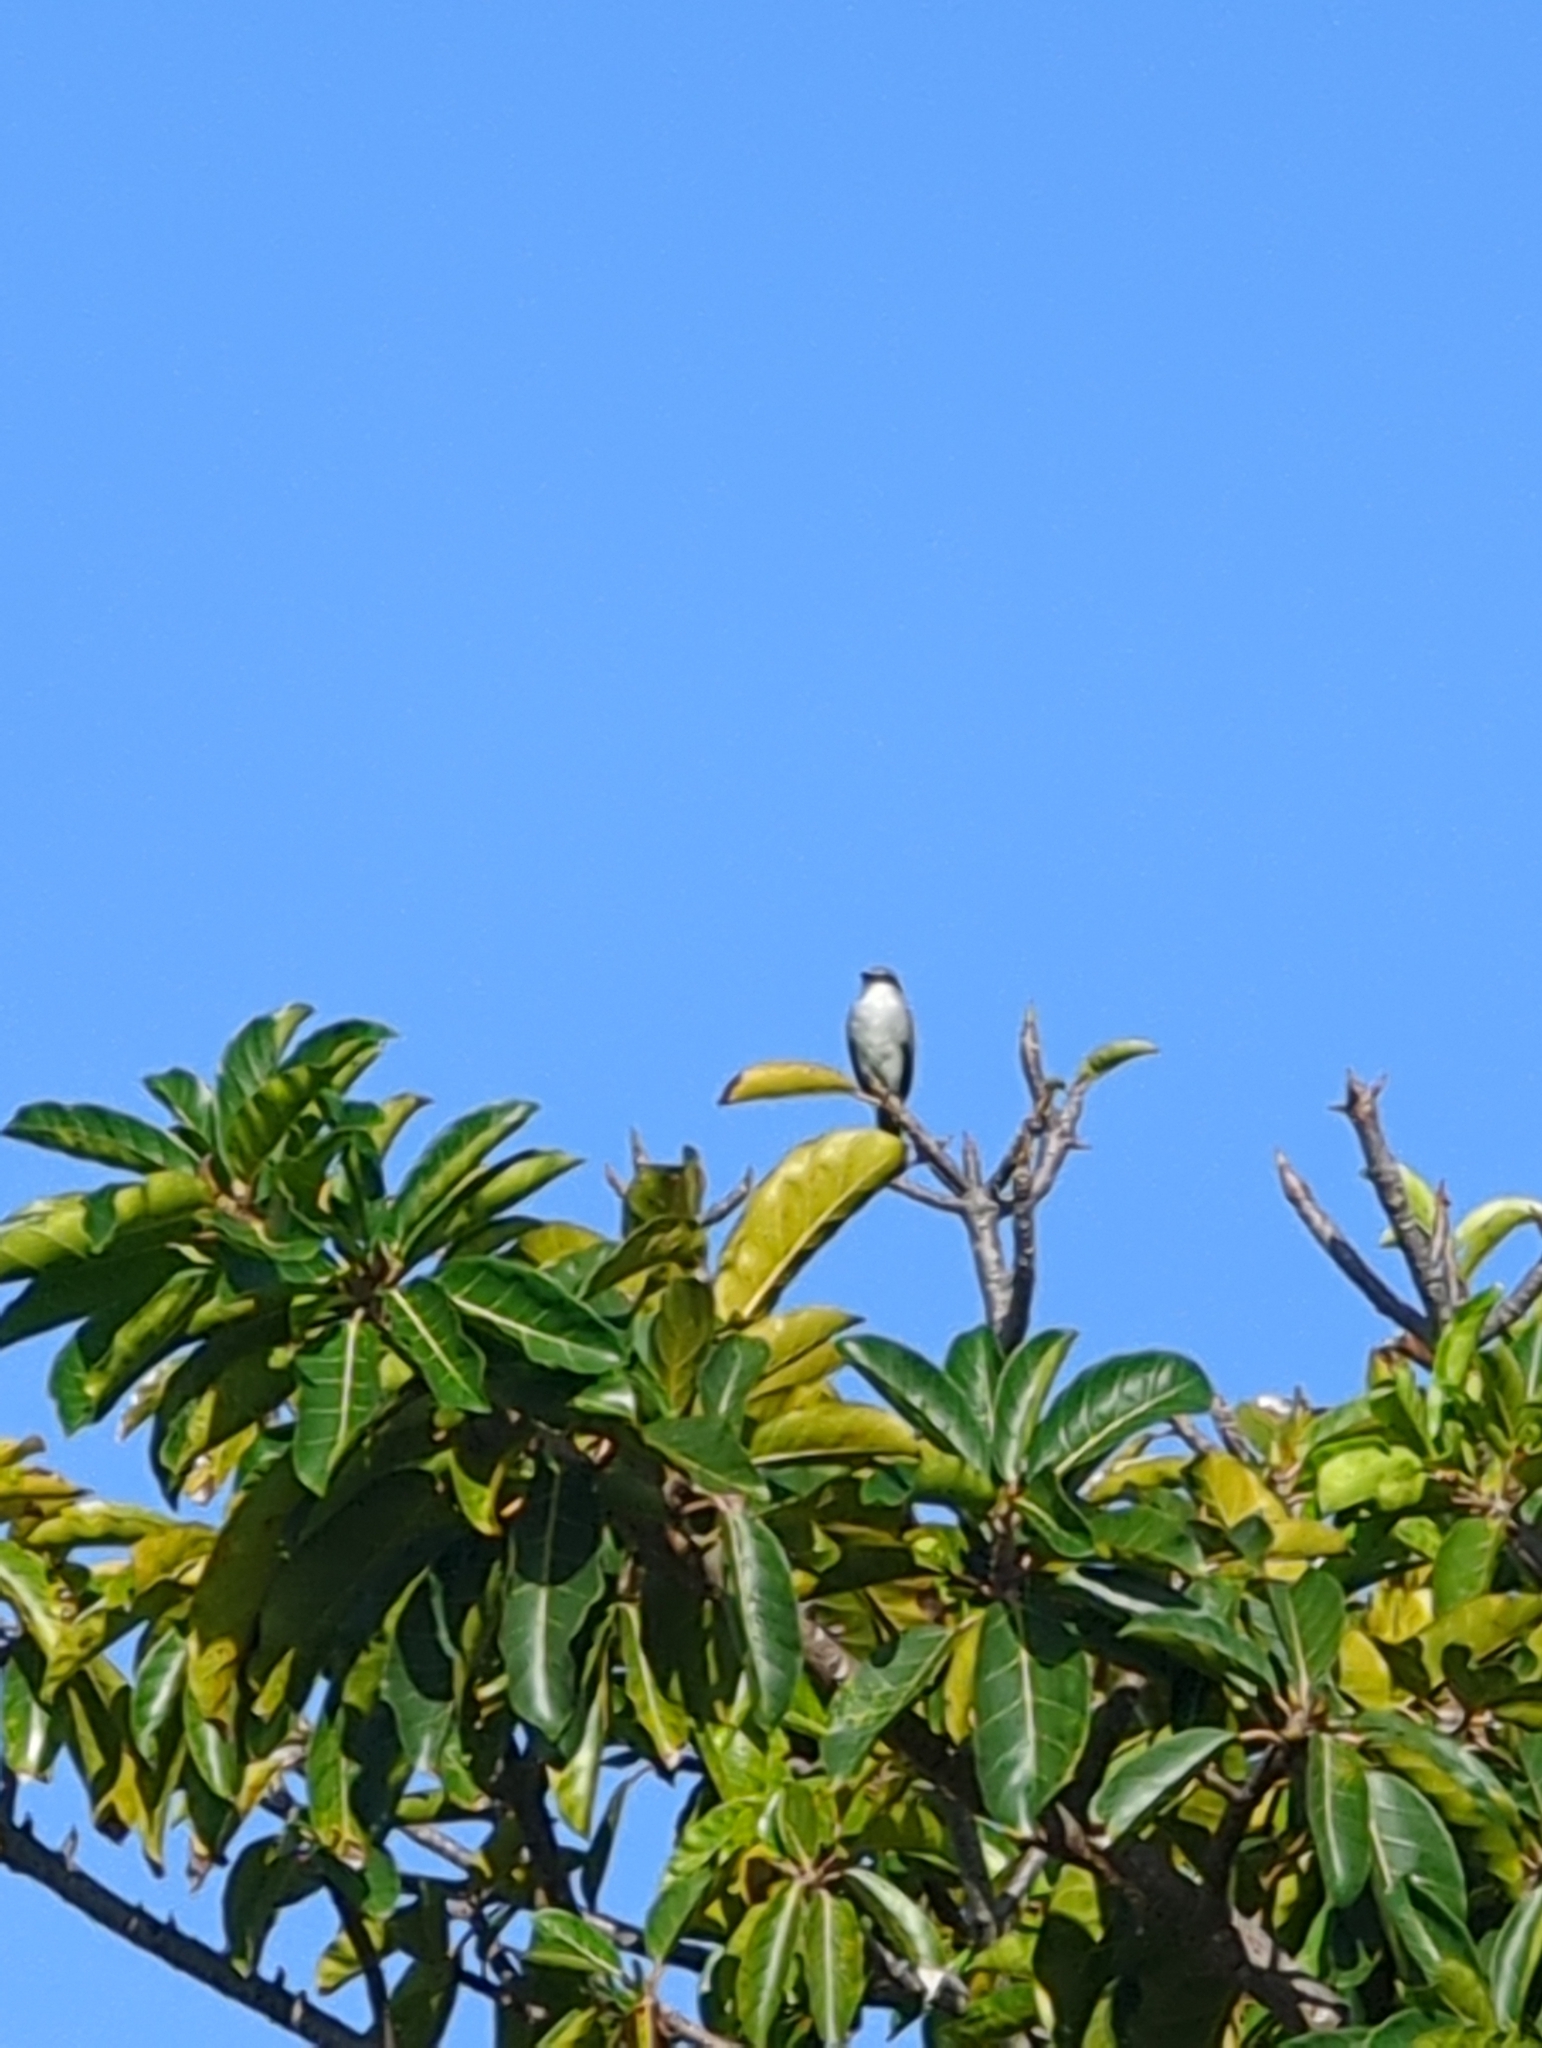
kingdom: Animalia
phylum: Chordata
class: Aves
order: Passeriformes
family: Tyrannidae
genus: Tyrannus
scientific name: Tyrannus dominicensis
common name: Gray kingbird
